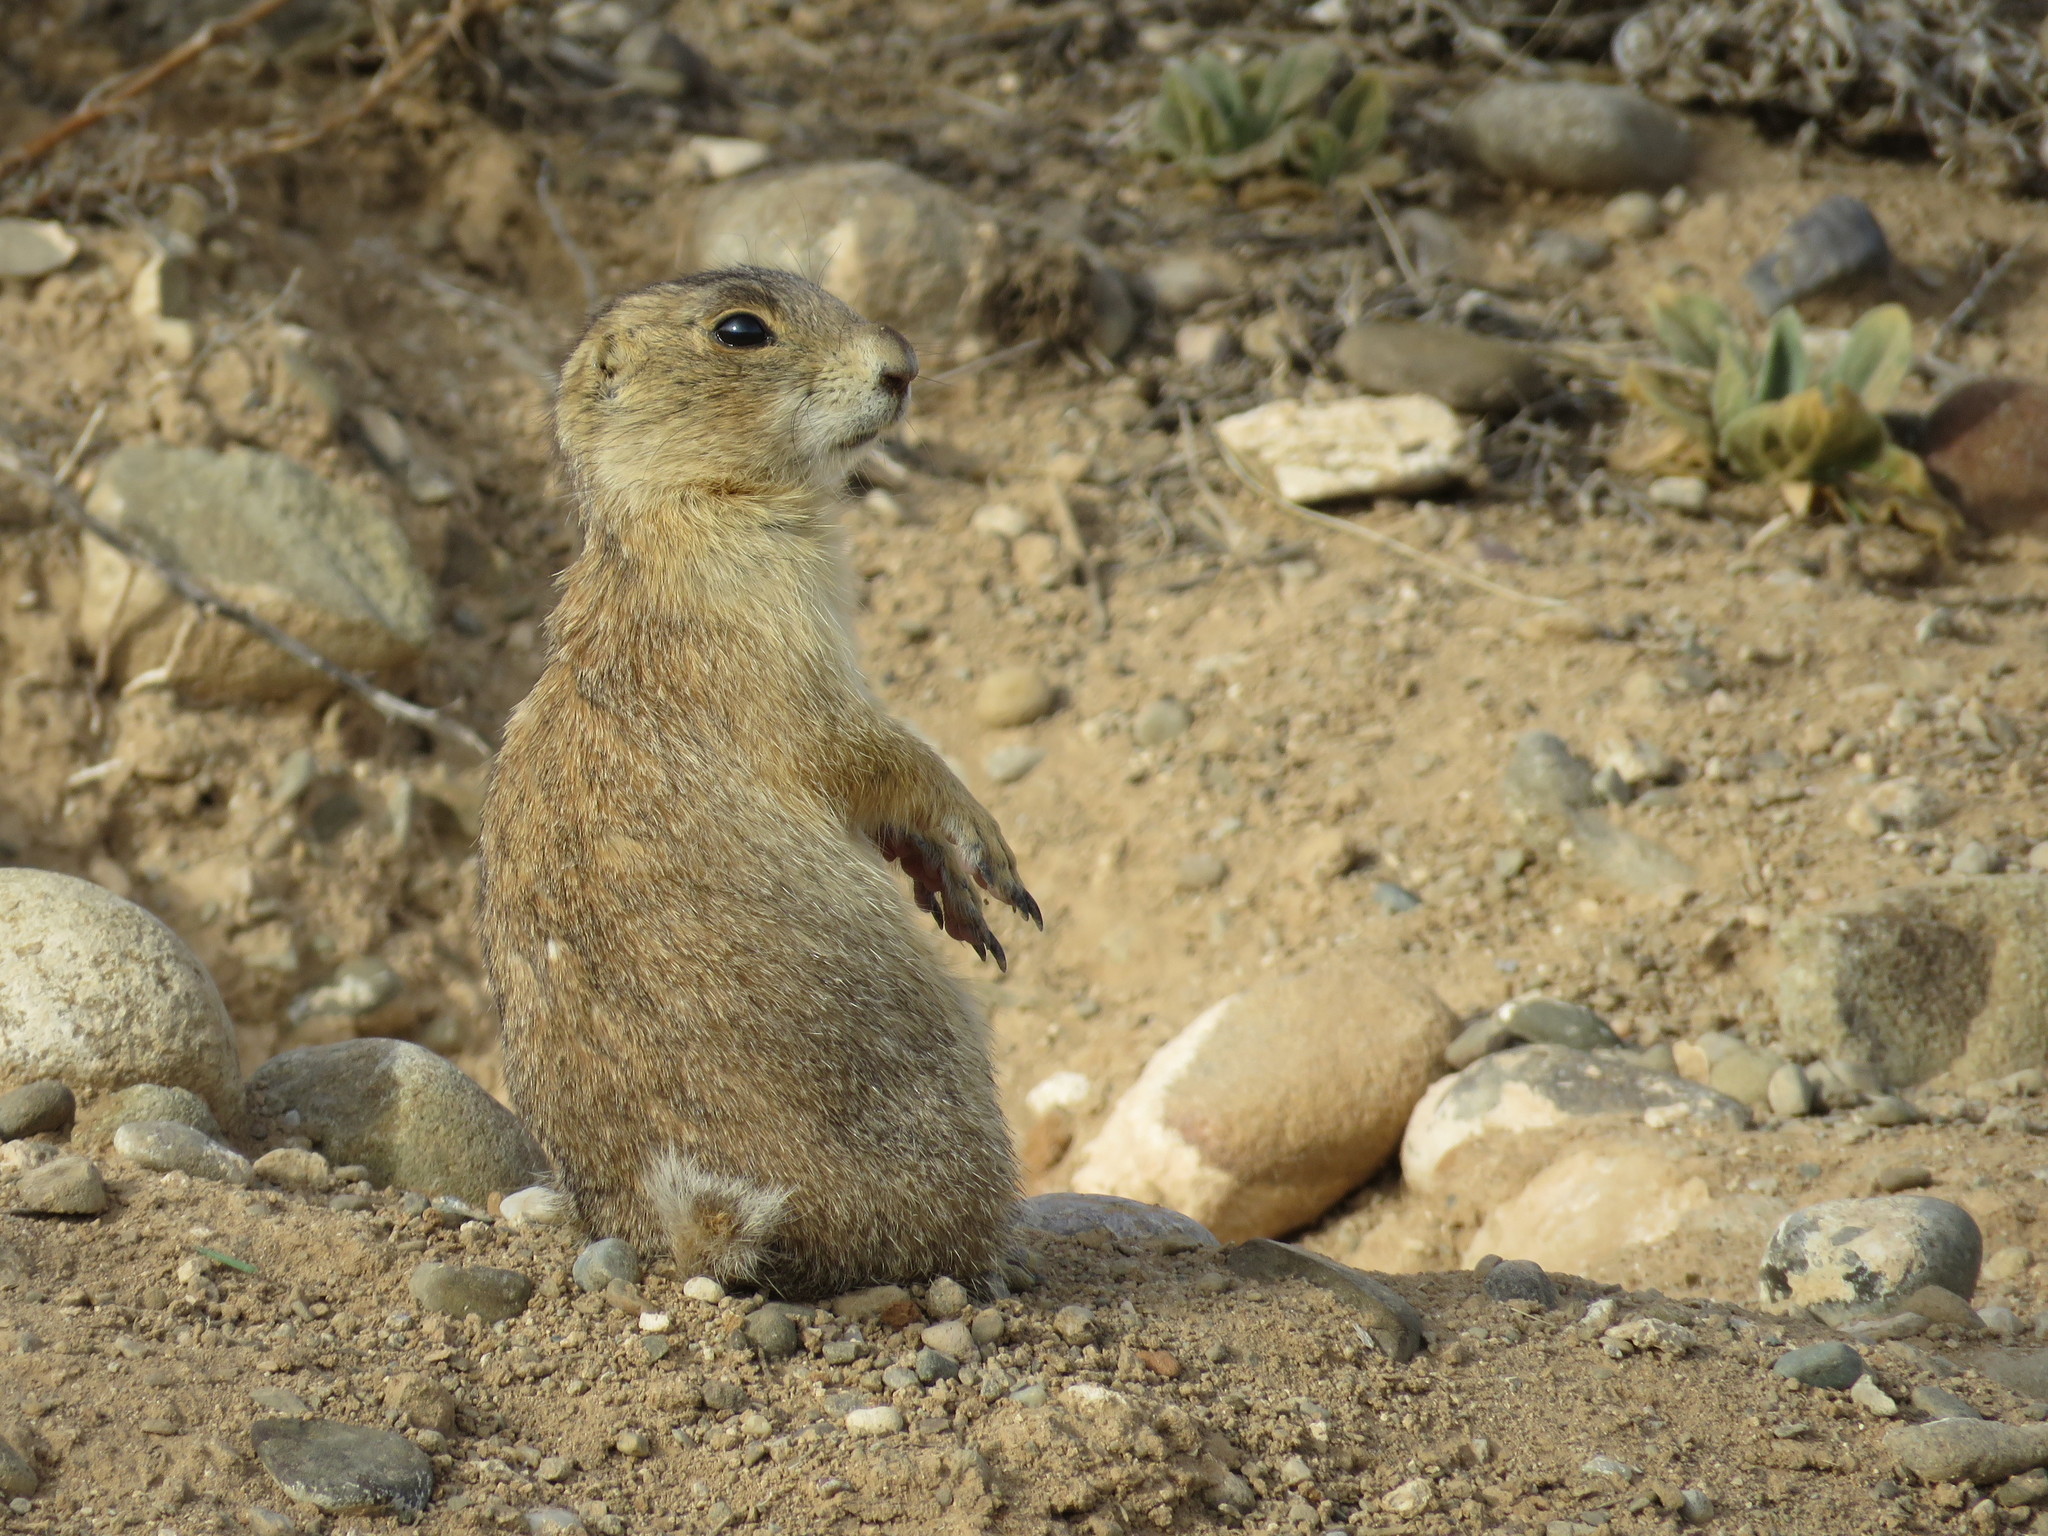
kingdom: Animalia
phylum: Chordata
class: Mammalia
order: Rodentia
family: Sciuridae
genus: Cynomys
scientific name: Cynomys gunnisoni
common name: Gunnison's prairie dog
